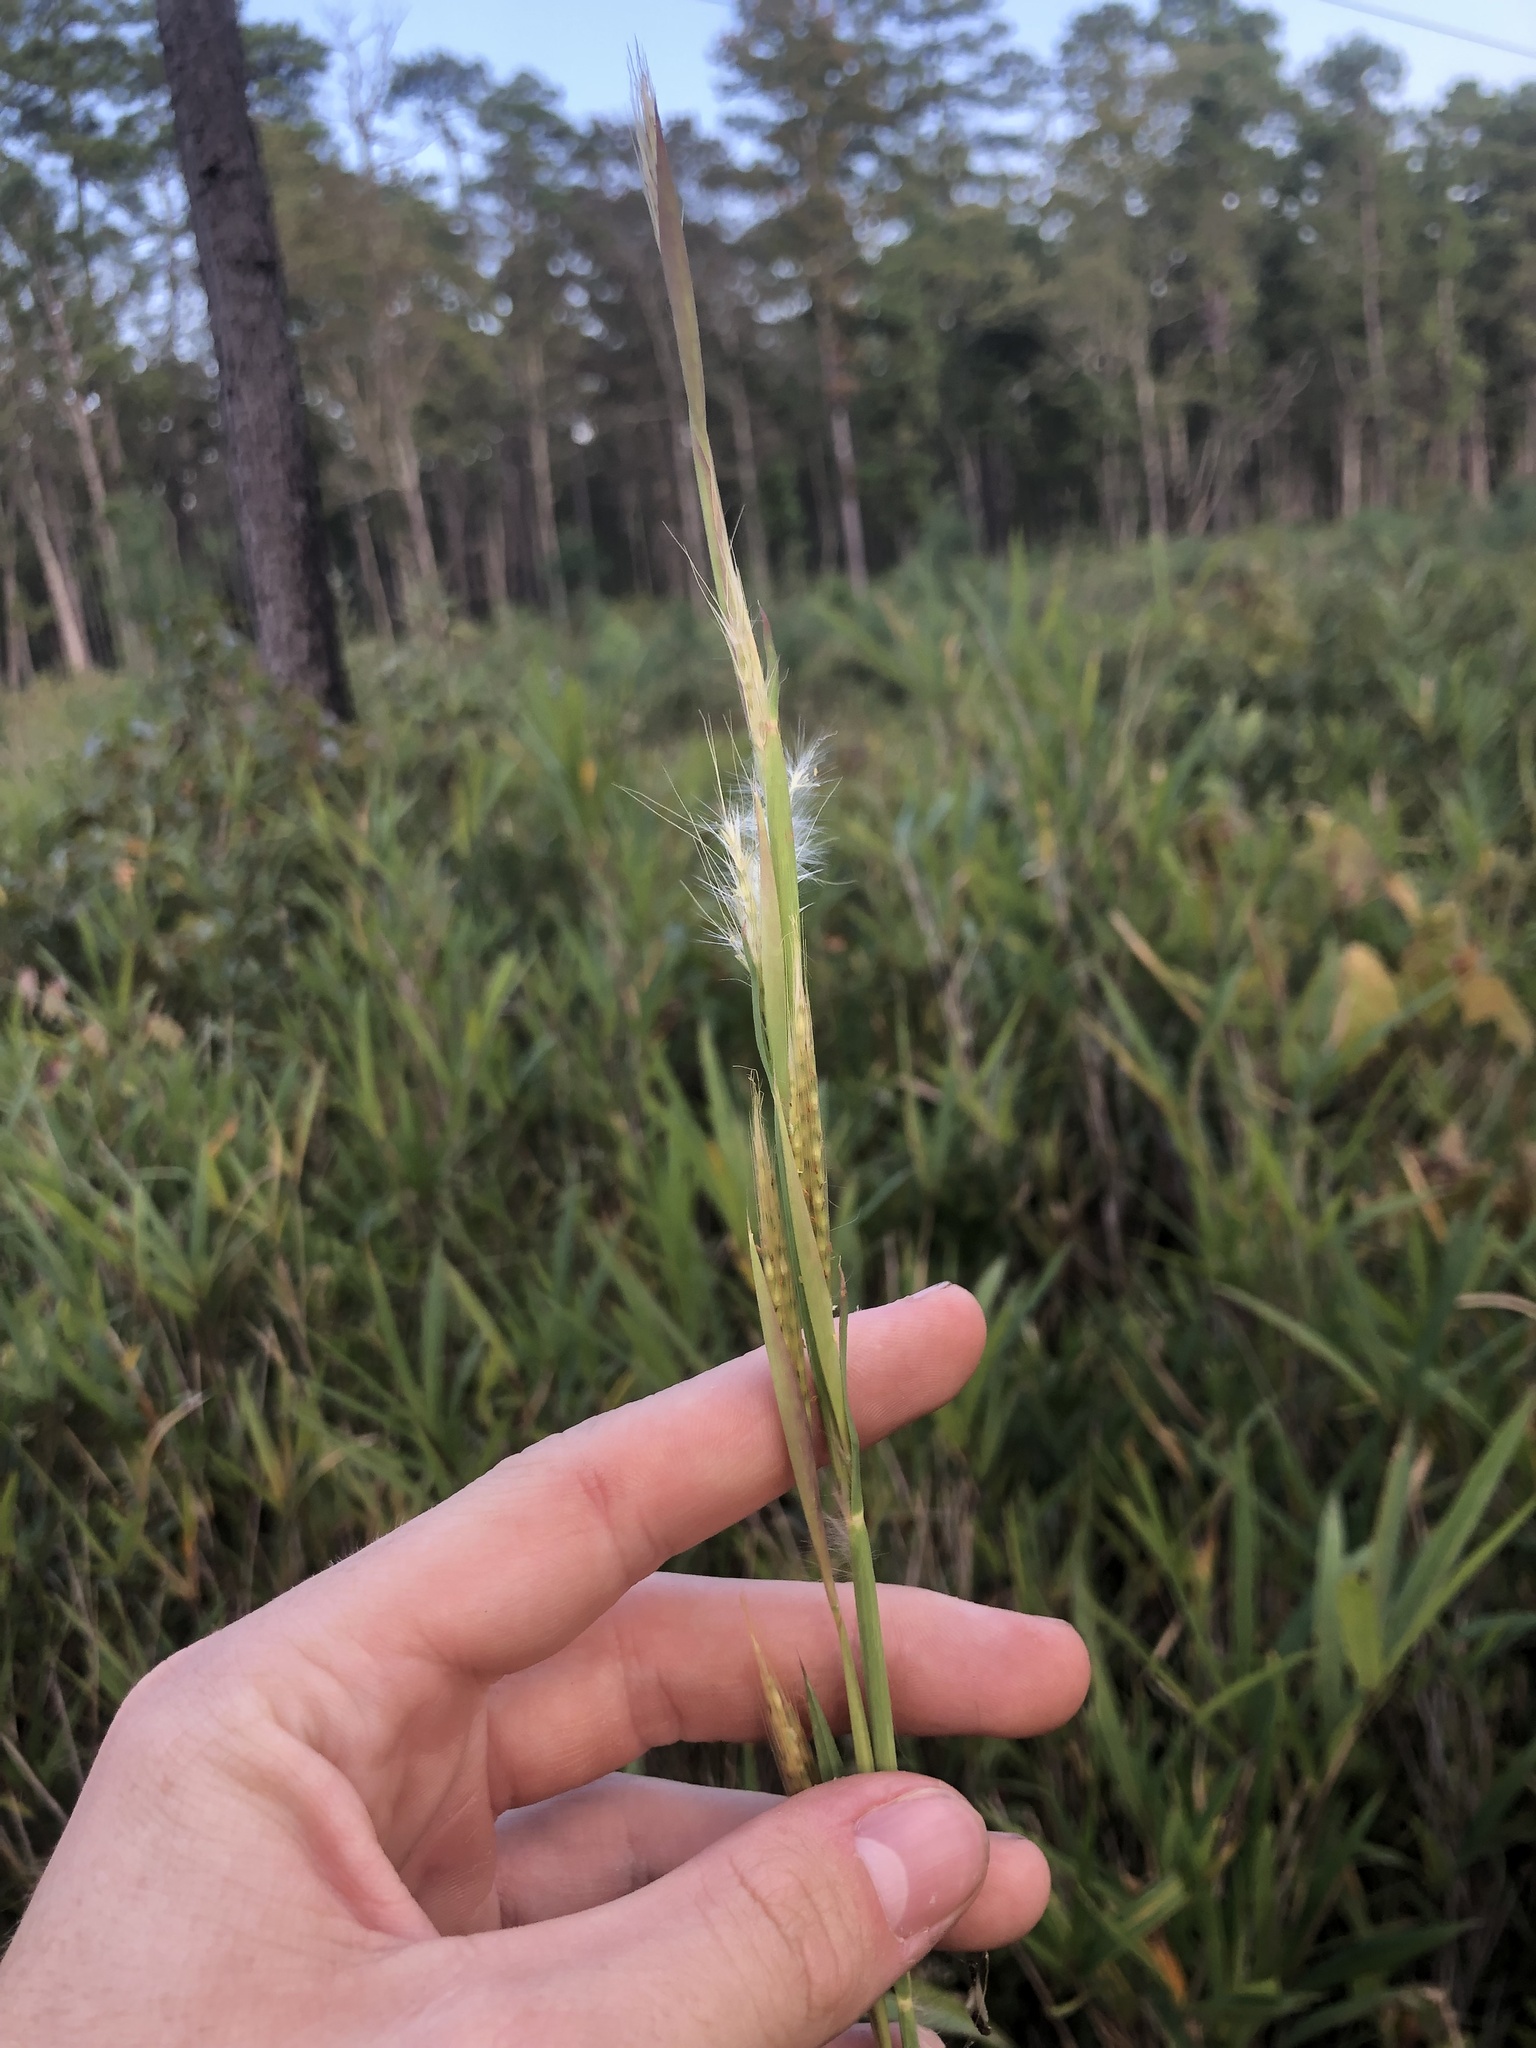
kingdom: Plantae
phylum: Tracheophyta
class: Liliopsida
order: Poales
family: Poaceae
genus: Andropogon
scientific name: Andropogon mohrii
